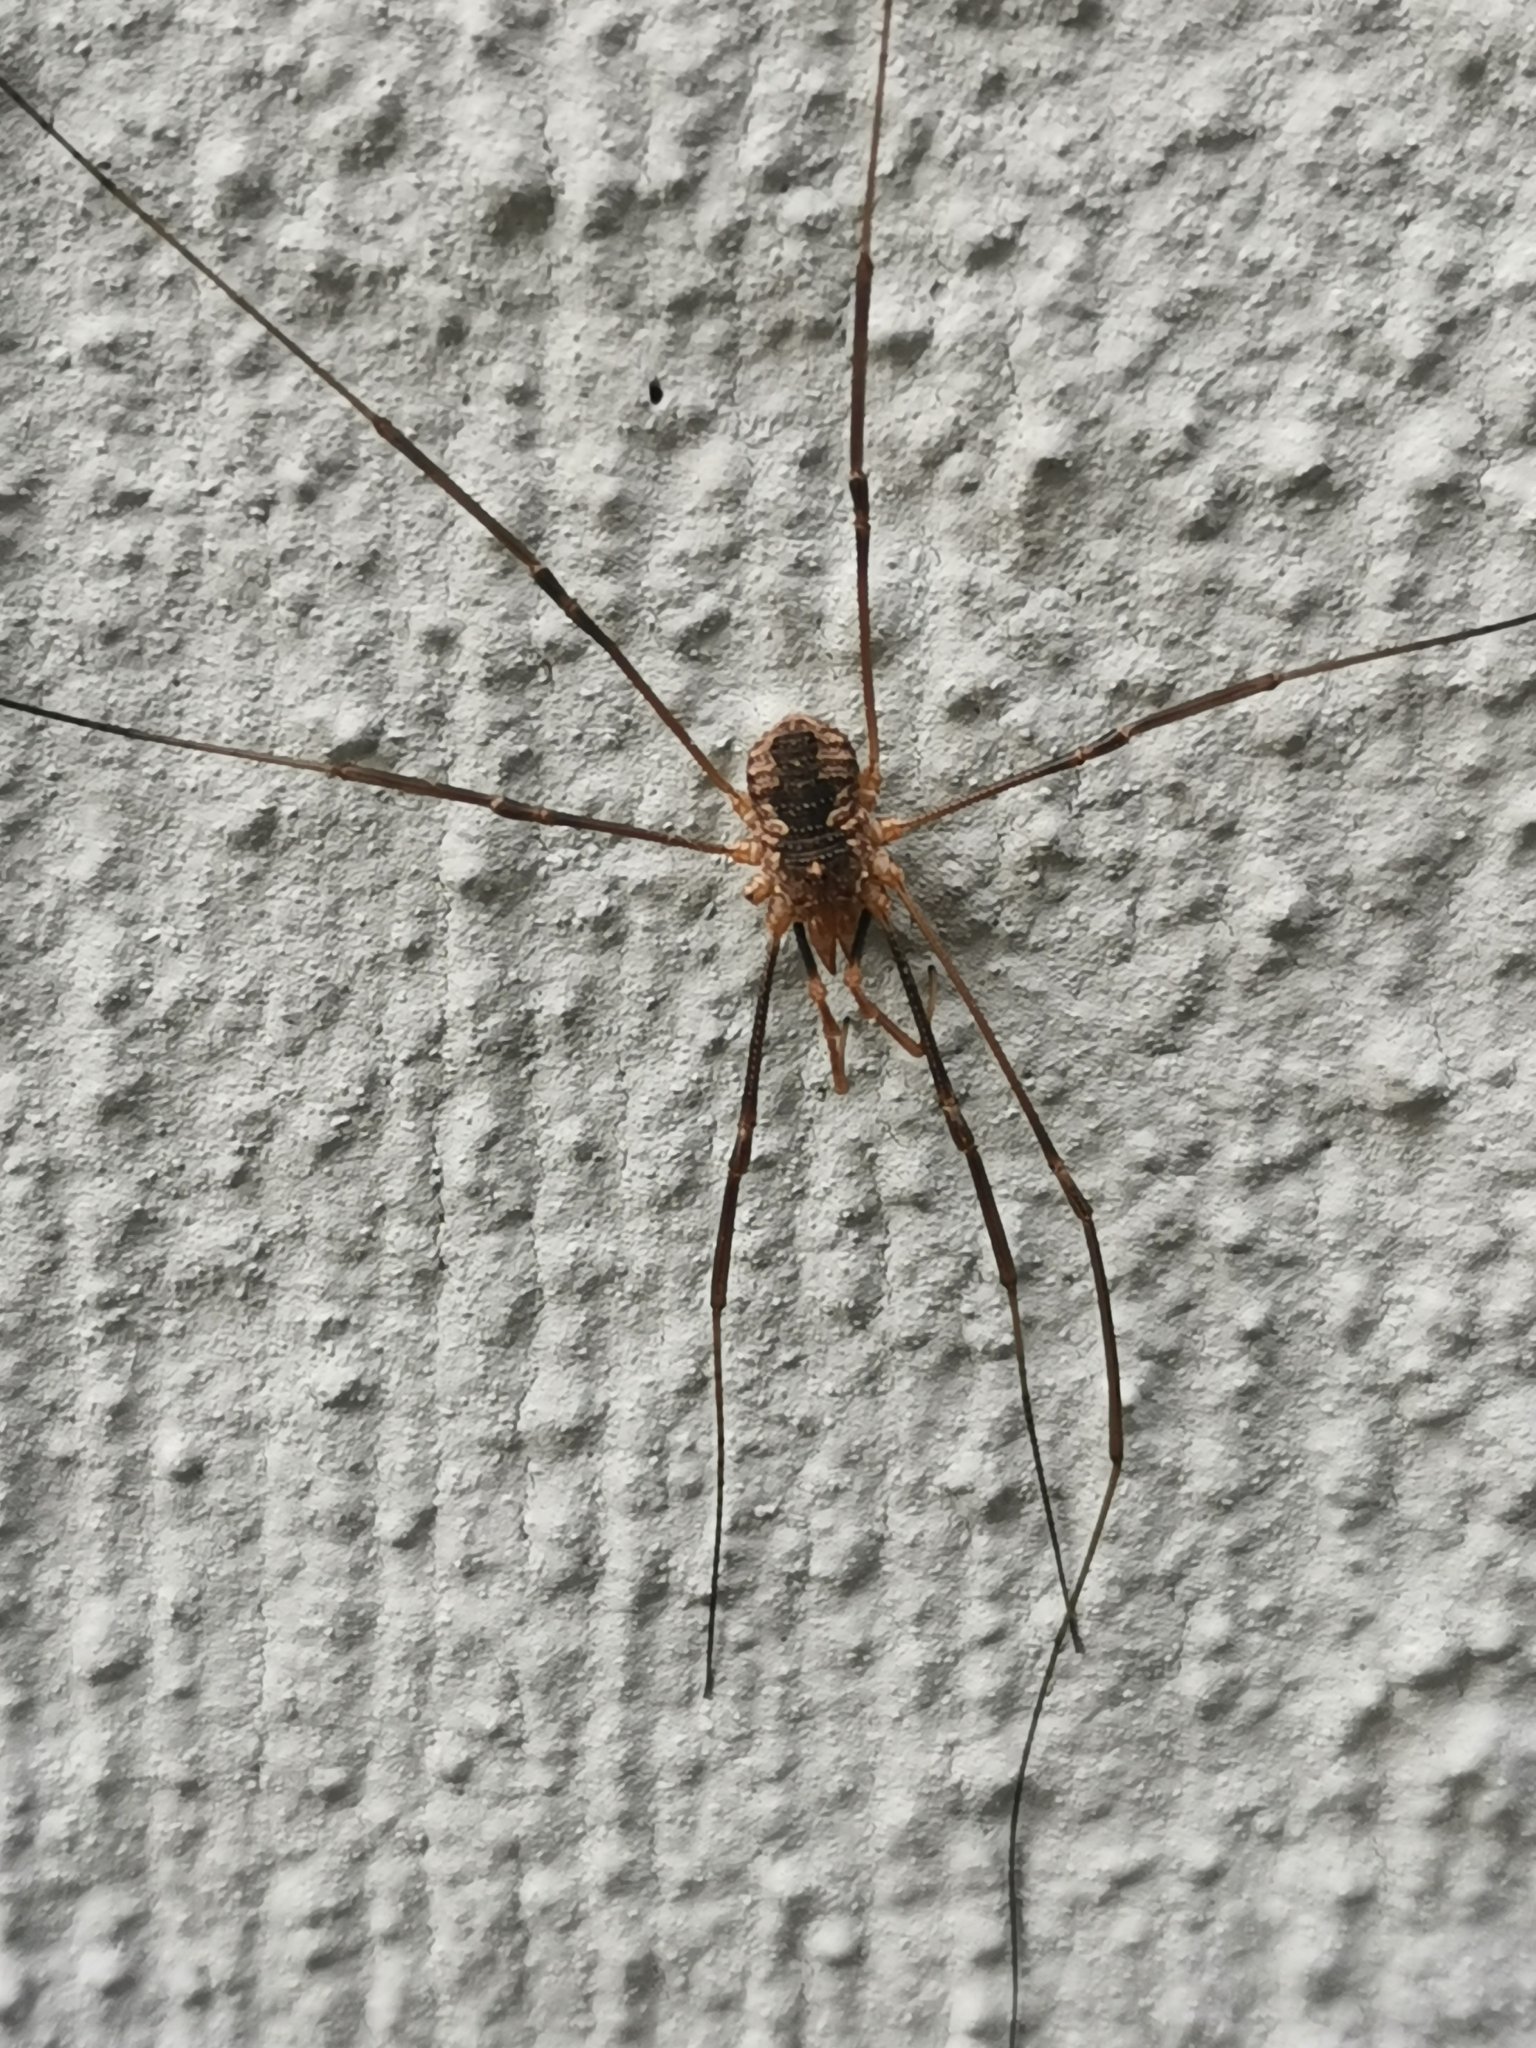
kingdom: Animalia
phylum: Arthropoda
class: Arachnida
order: Opiliones
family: Phalangiidae
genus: Phalangium
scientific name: Phalangium opilio
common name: Daddy longleg
